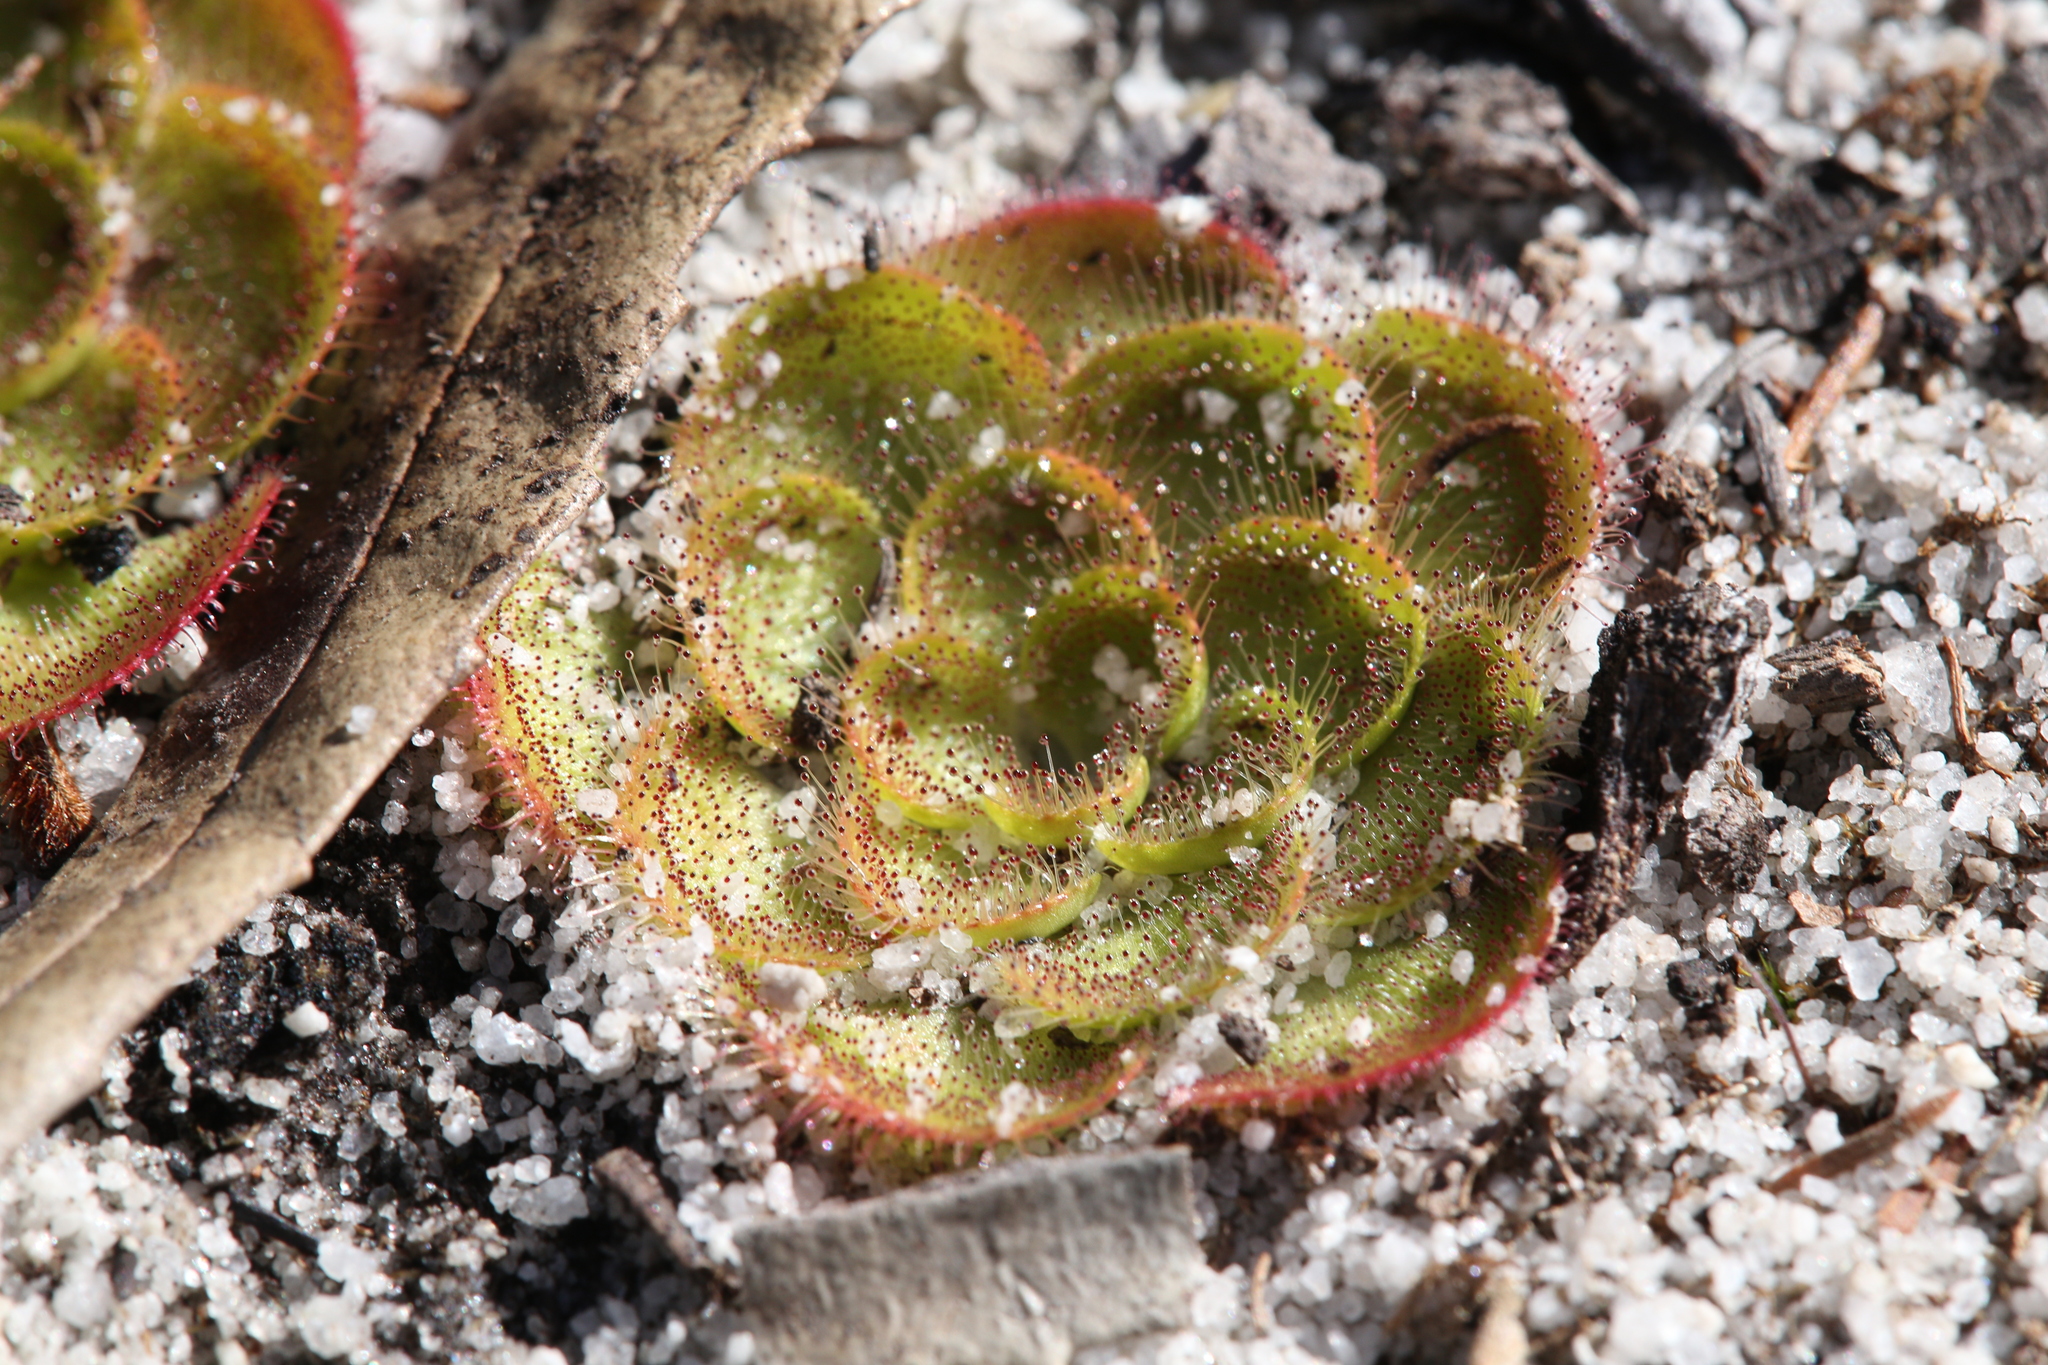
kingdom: Plantae
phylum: Tracheophyta
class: Magnoliopsida
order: Caryophyllales
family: Droseraceae
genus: Drosera
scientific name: Drosera zonaria
